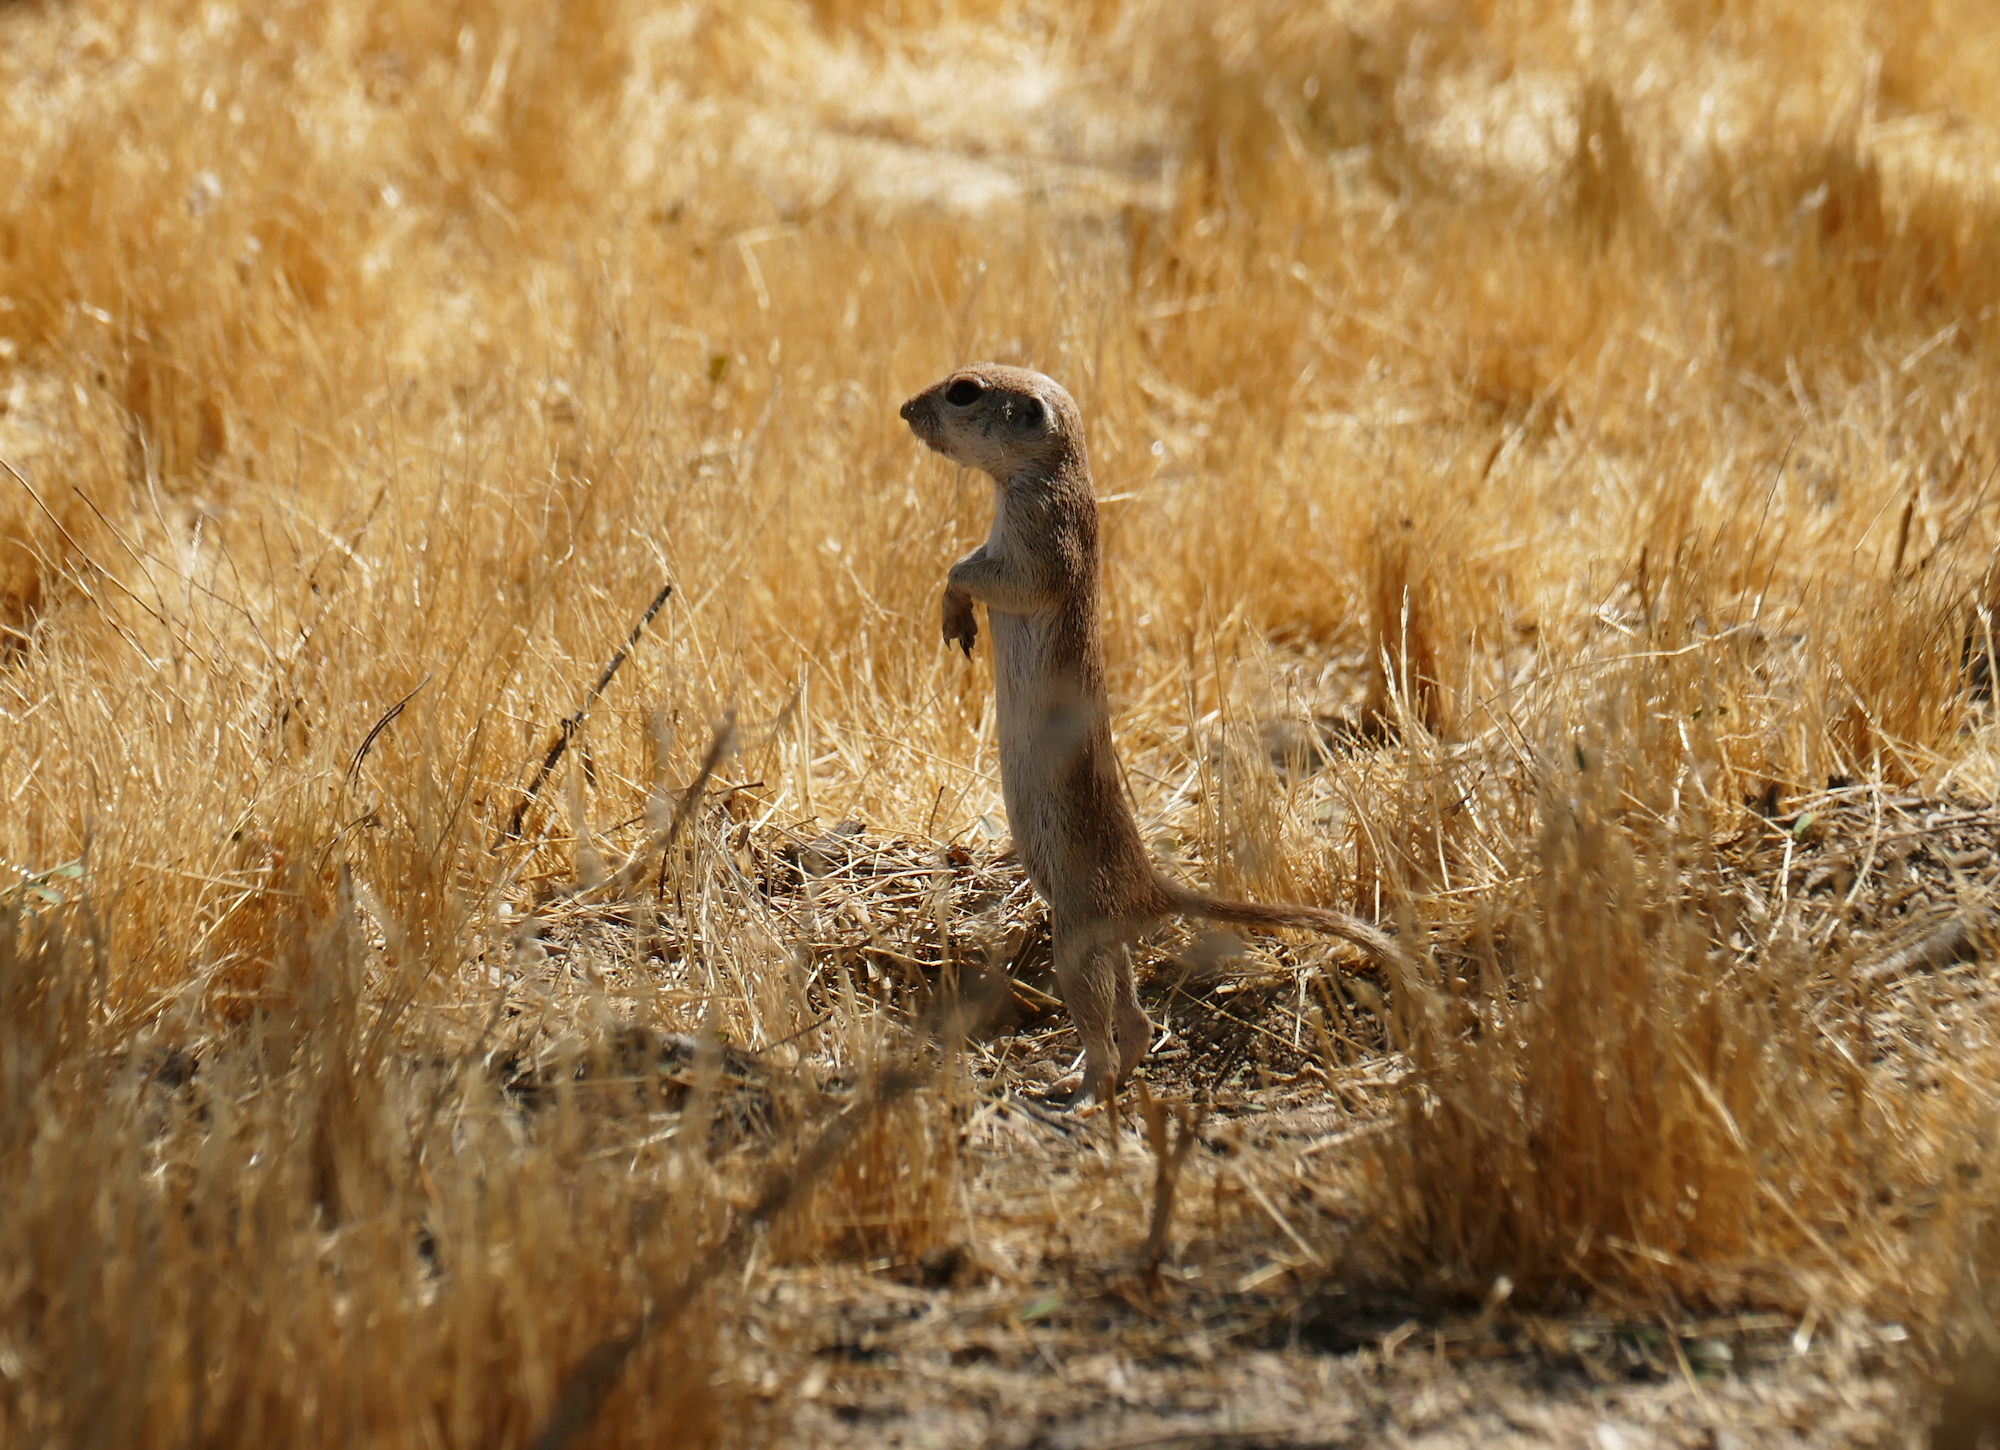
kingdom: Animalia
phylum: Chordata
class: Mammalia
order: Rodentia
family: Sciuridae
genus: Xerospermophilus
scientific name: Xerospermophilus tereticaudus
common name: Round-tailed ground squirrel
